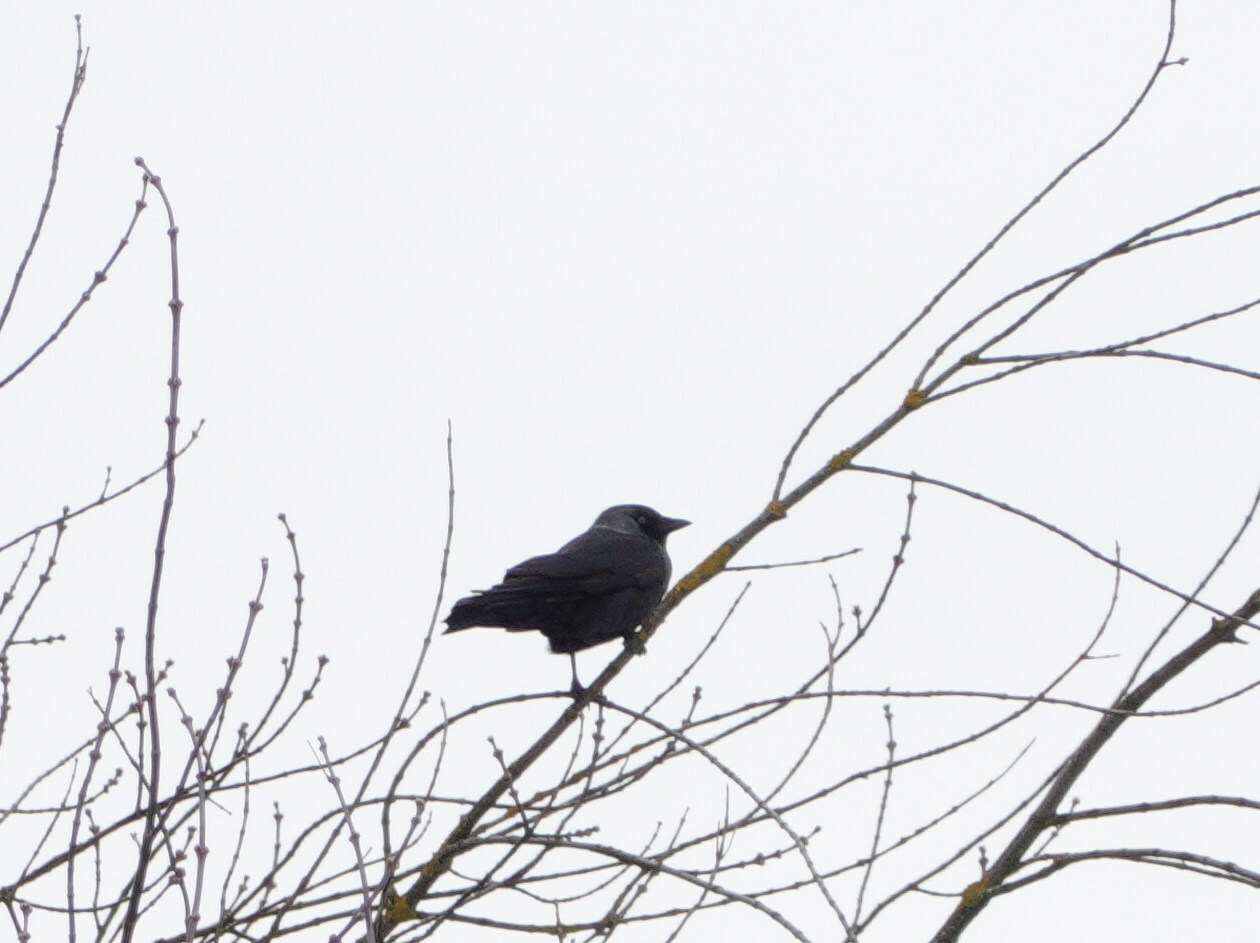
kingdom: Animalia
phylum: Chordata
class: Aves
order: Passeriformes
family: Corvidae
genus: Coloeus
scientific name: Coloeus monedula
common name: Western jackdaw
